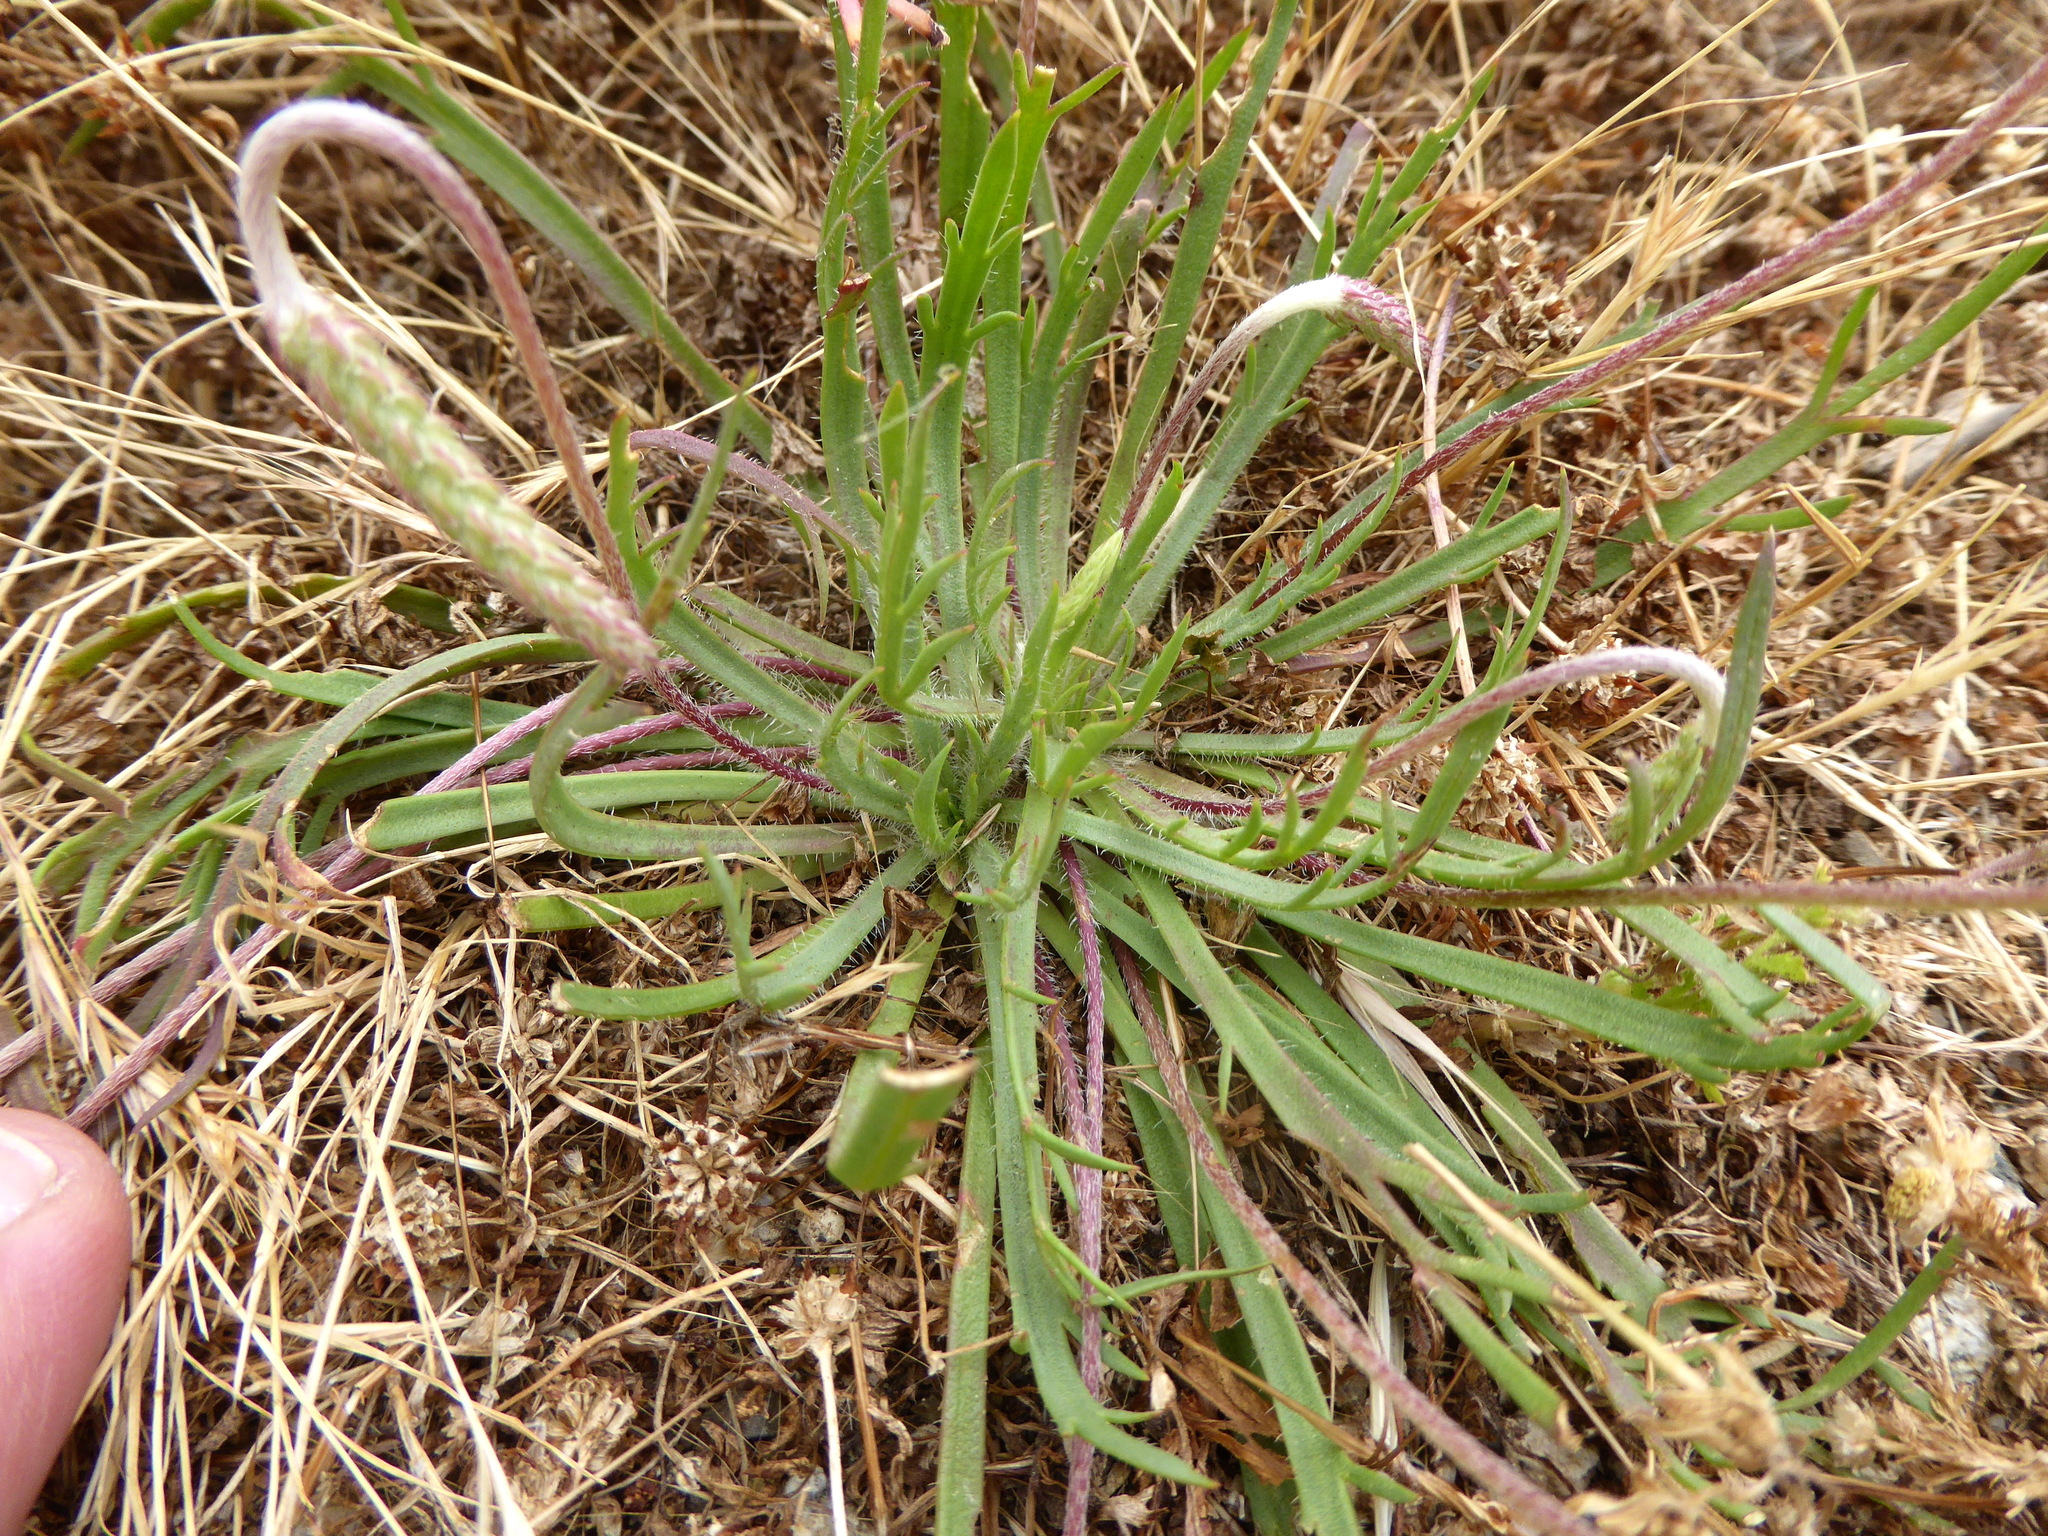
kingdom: Plantae
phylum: Tracheophyta
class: Magnoliopsida
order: Lamiales
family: Plantaginaceae
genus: Plantago
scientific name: Plantago coronopus
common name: Buck's-horn plantain
